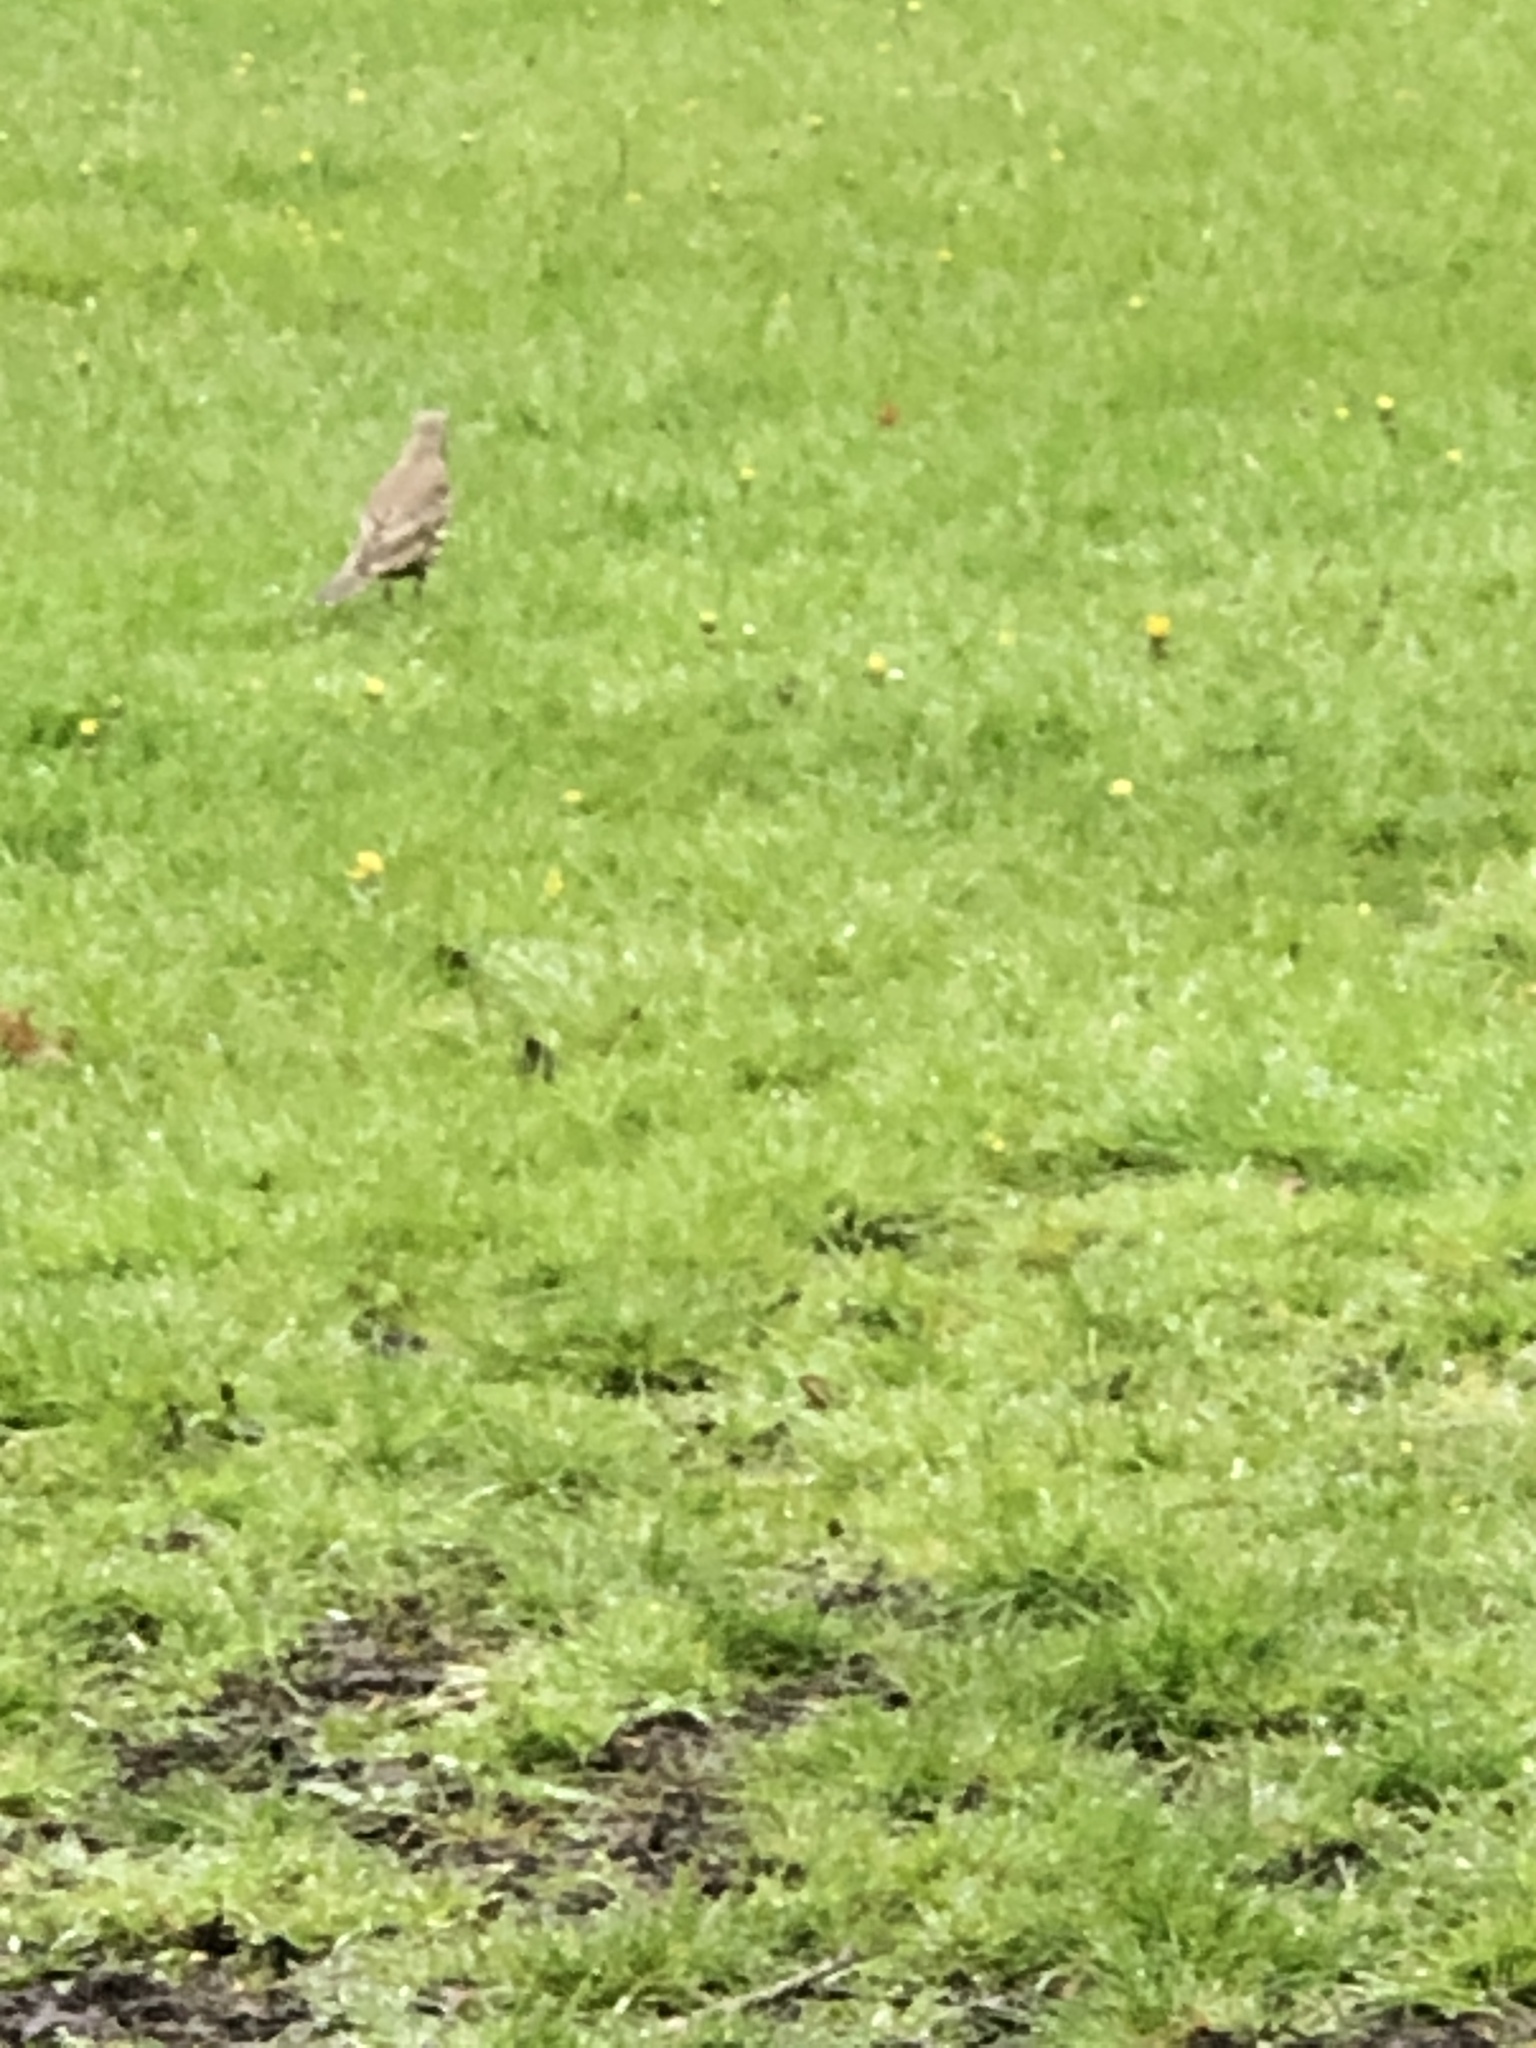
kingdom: Animalia
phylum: Chordata
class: Aves
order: Passeriformes
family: Turdidae
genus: Turdus
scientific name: Turdus viscivorus
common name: Mistle thrush
